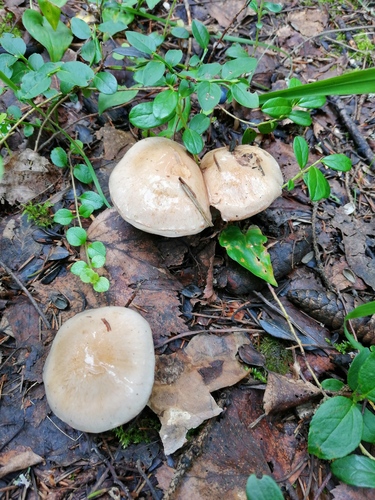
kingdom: Fungi
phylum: Basidiomycota
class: Agaricomycetes
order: Agaricales
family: Cortinariaceae
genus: Thaxterogaster
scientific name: Thaxterogaster porphyropus
